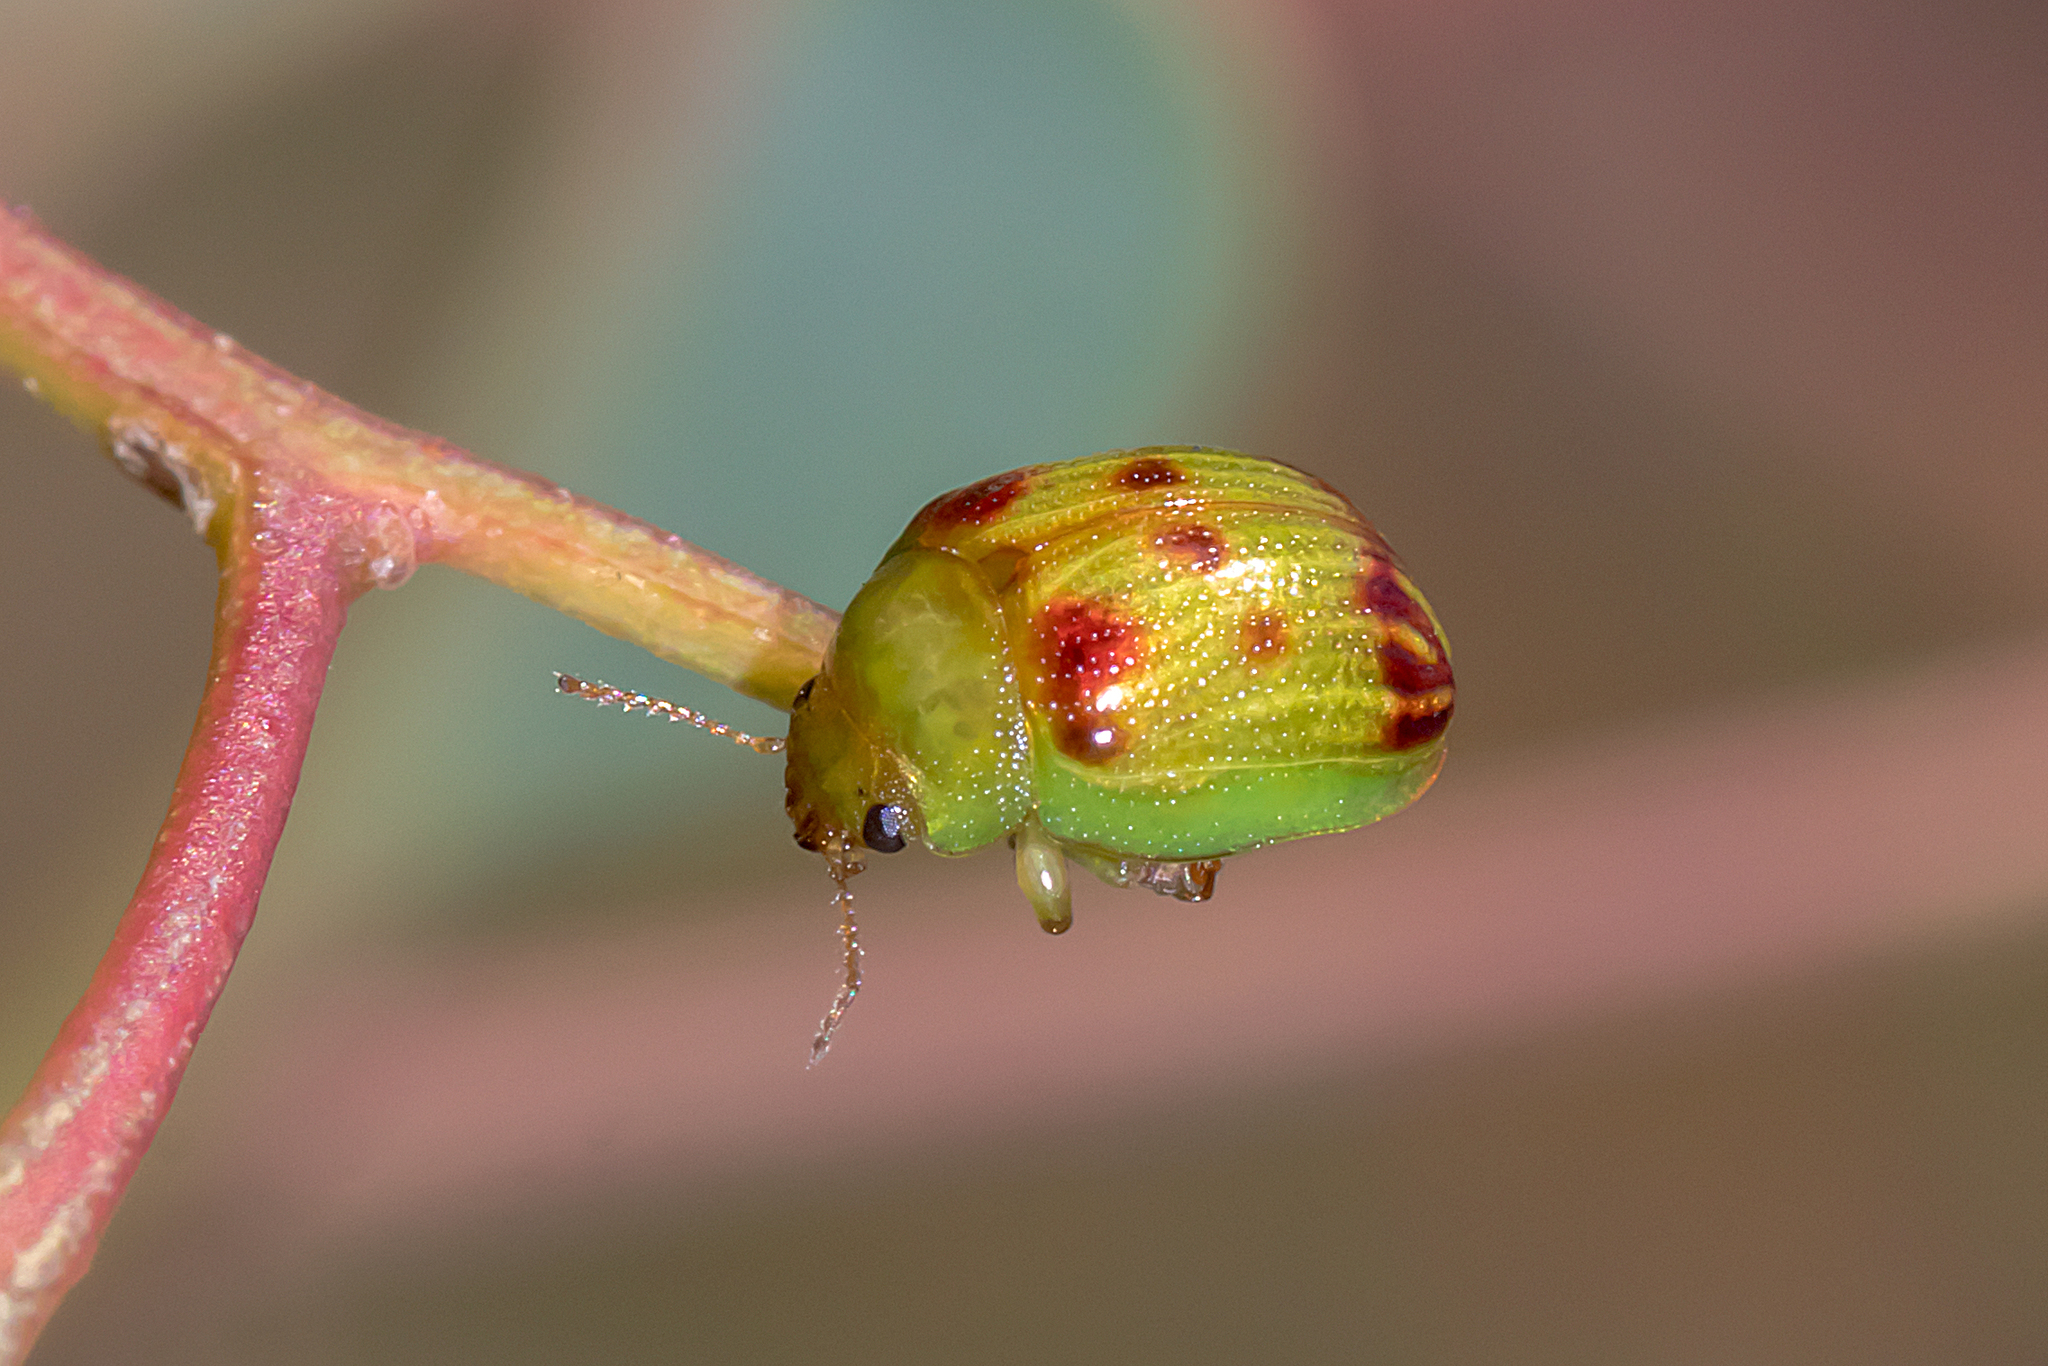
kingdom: Animalia
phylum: Arthropoda
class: Insecta
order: Coleoptera
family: Chrysomelidae
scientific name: Chrysomelidae
